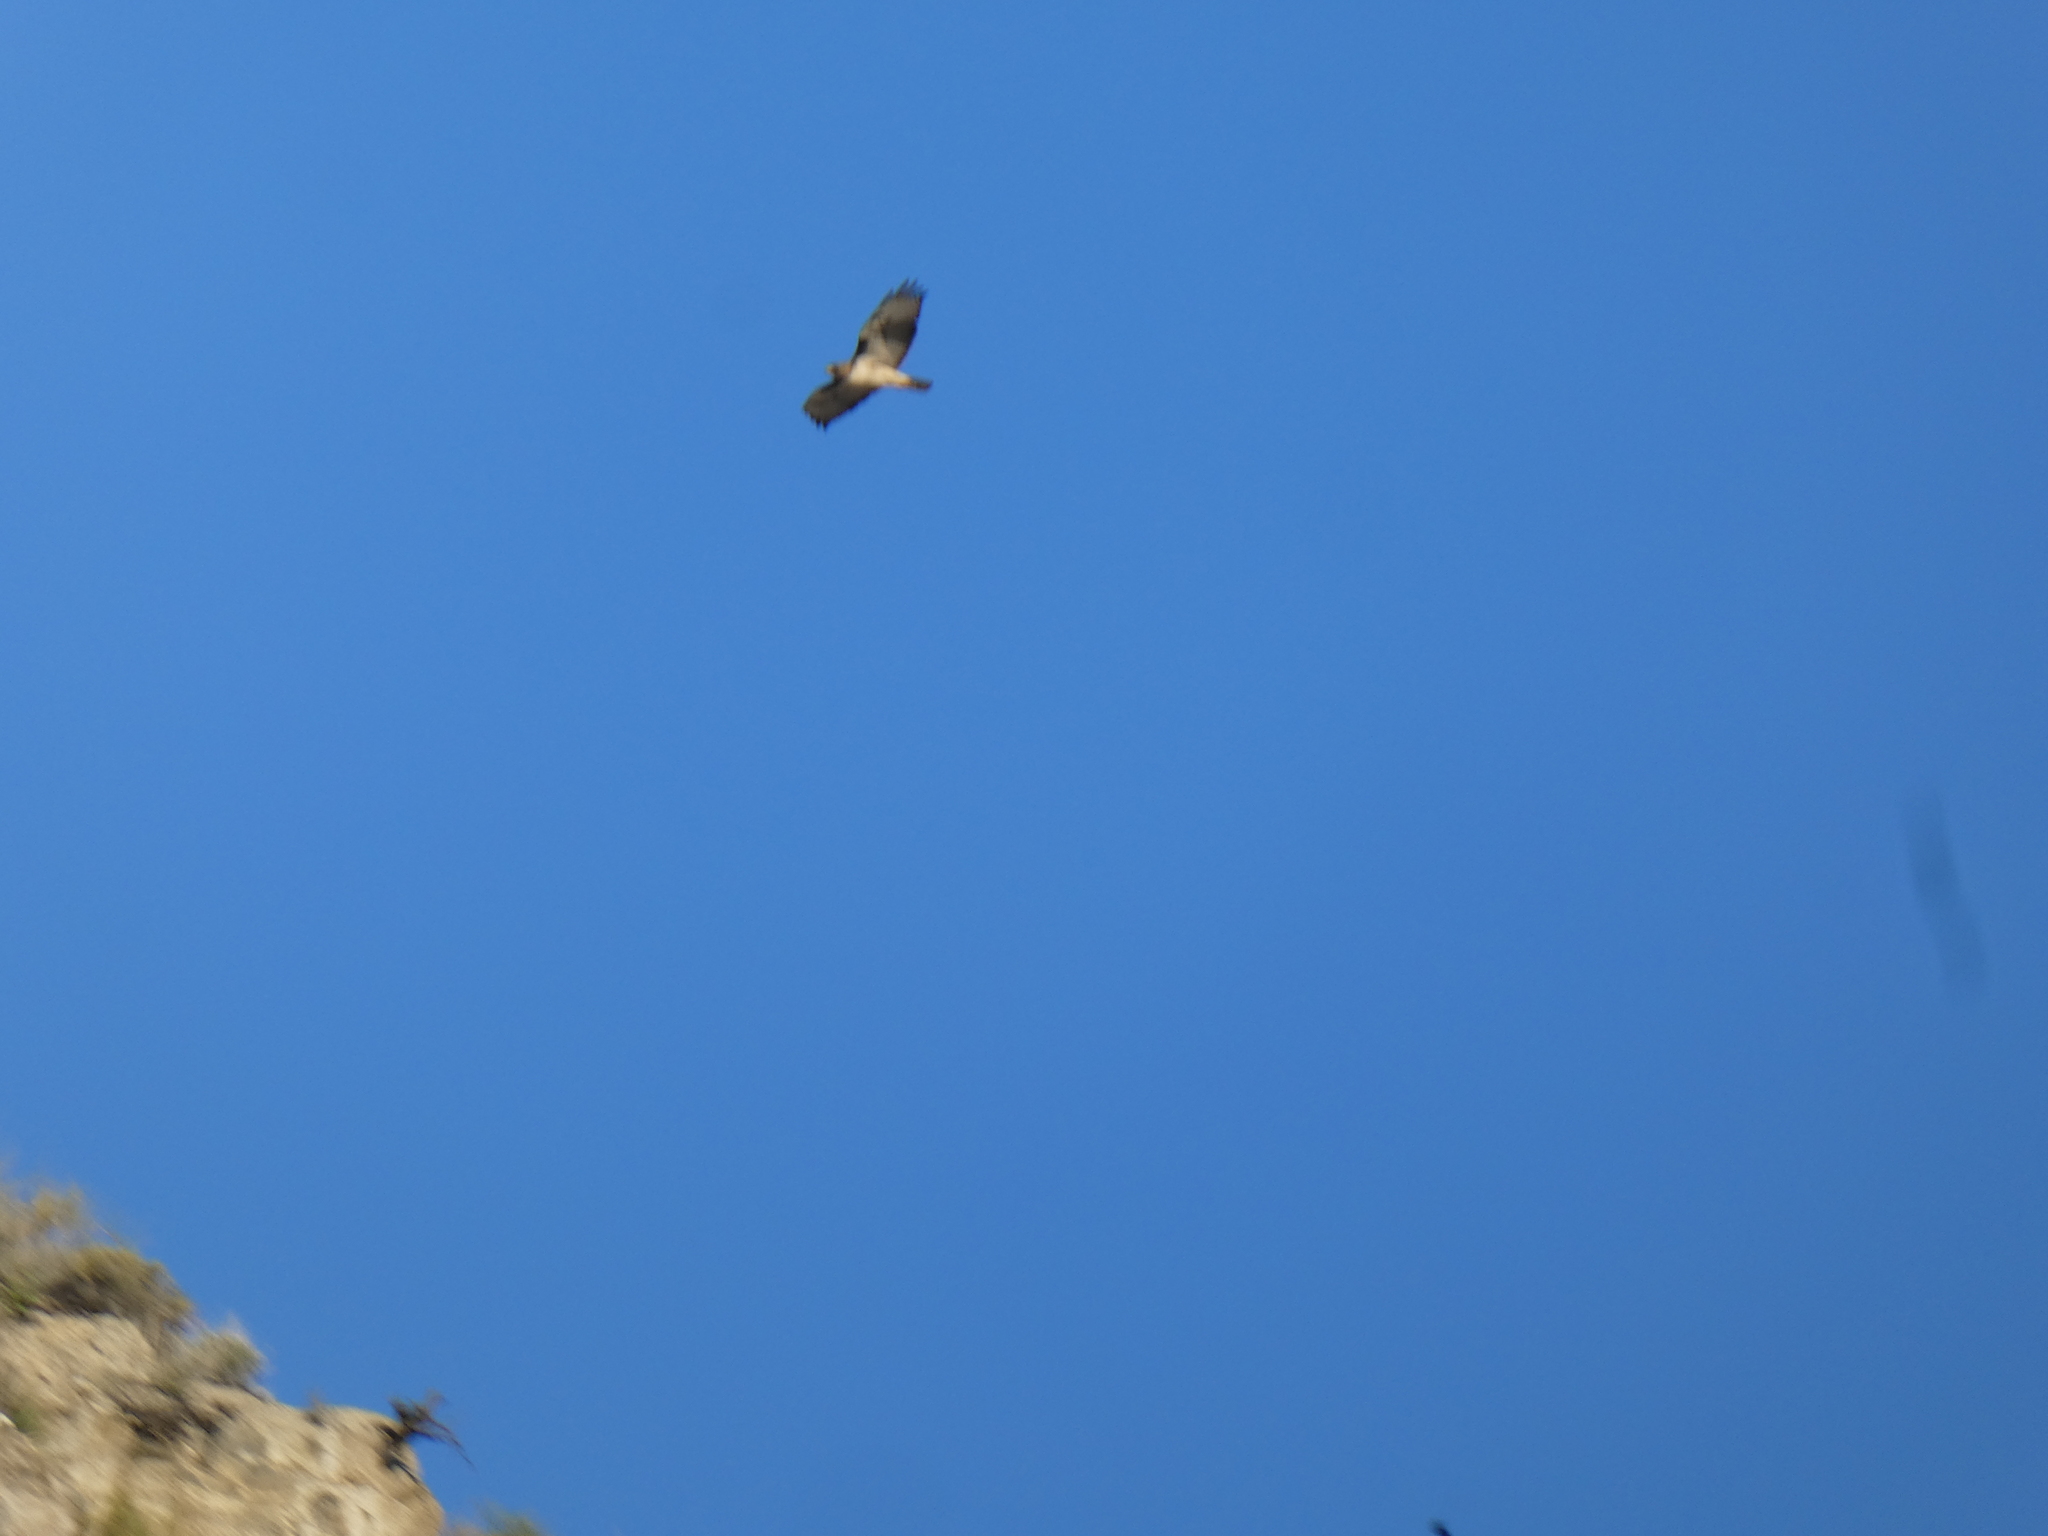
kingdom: Animalia
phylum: Chordata
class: Aves
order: Accipitriformes
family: Accipitridae
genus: Buteo
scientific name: Buteo jamaicensis
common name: Red-tailed hawk
